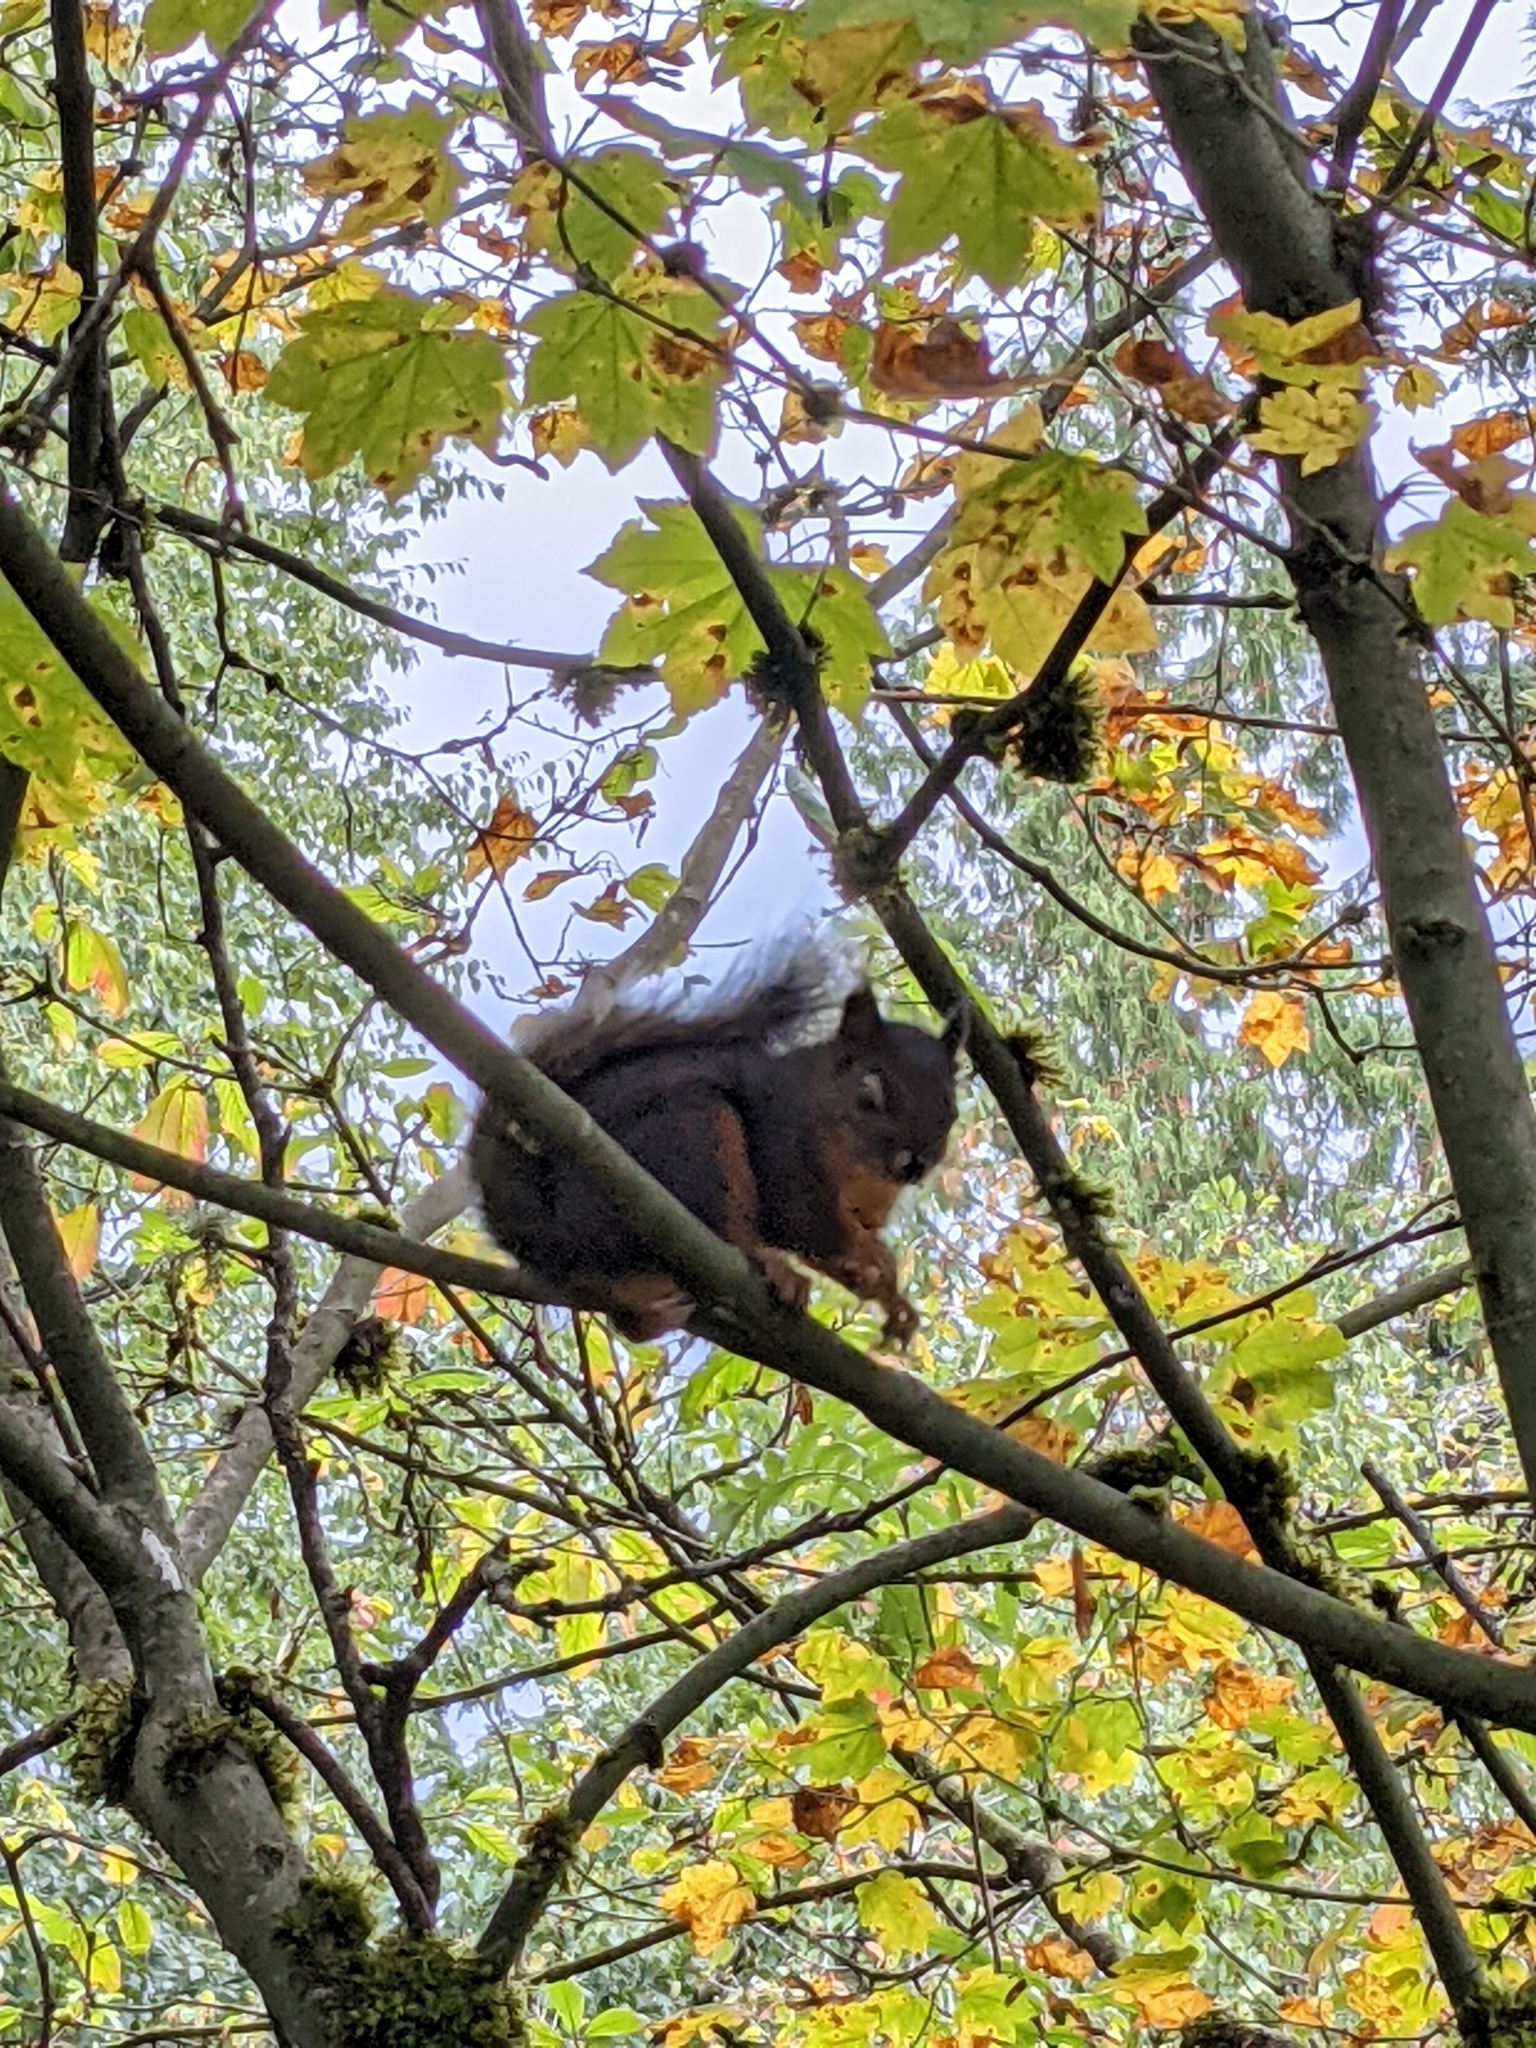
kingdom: Animalia
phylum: Chordata
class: Mammalia
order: Rodentia
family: Sciuridae
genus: Tamiasciurus
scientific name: Tamiasciurus douglasii
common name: Douglas's squirrel
